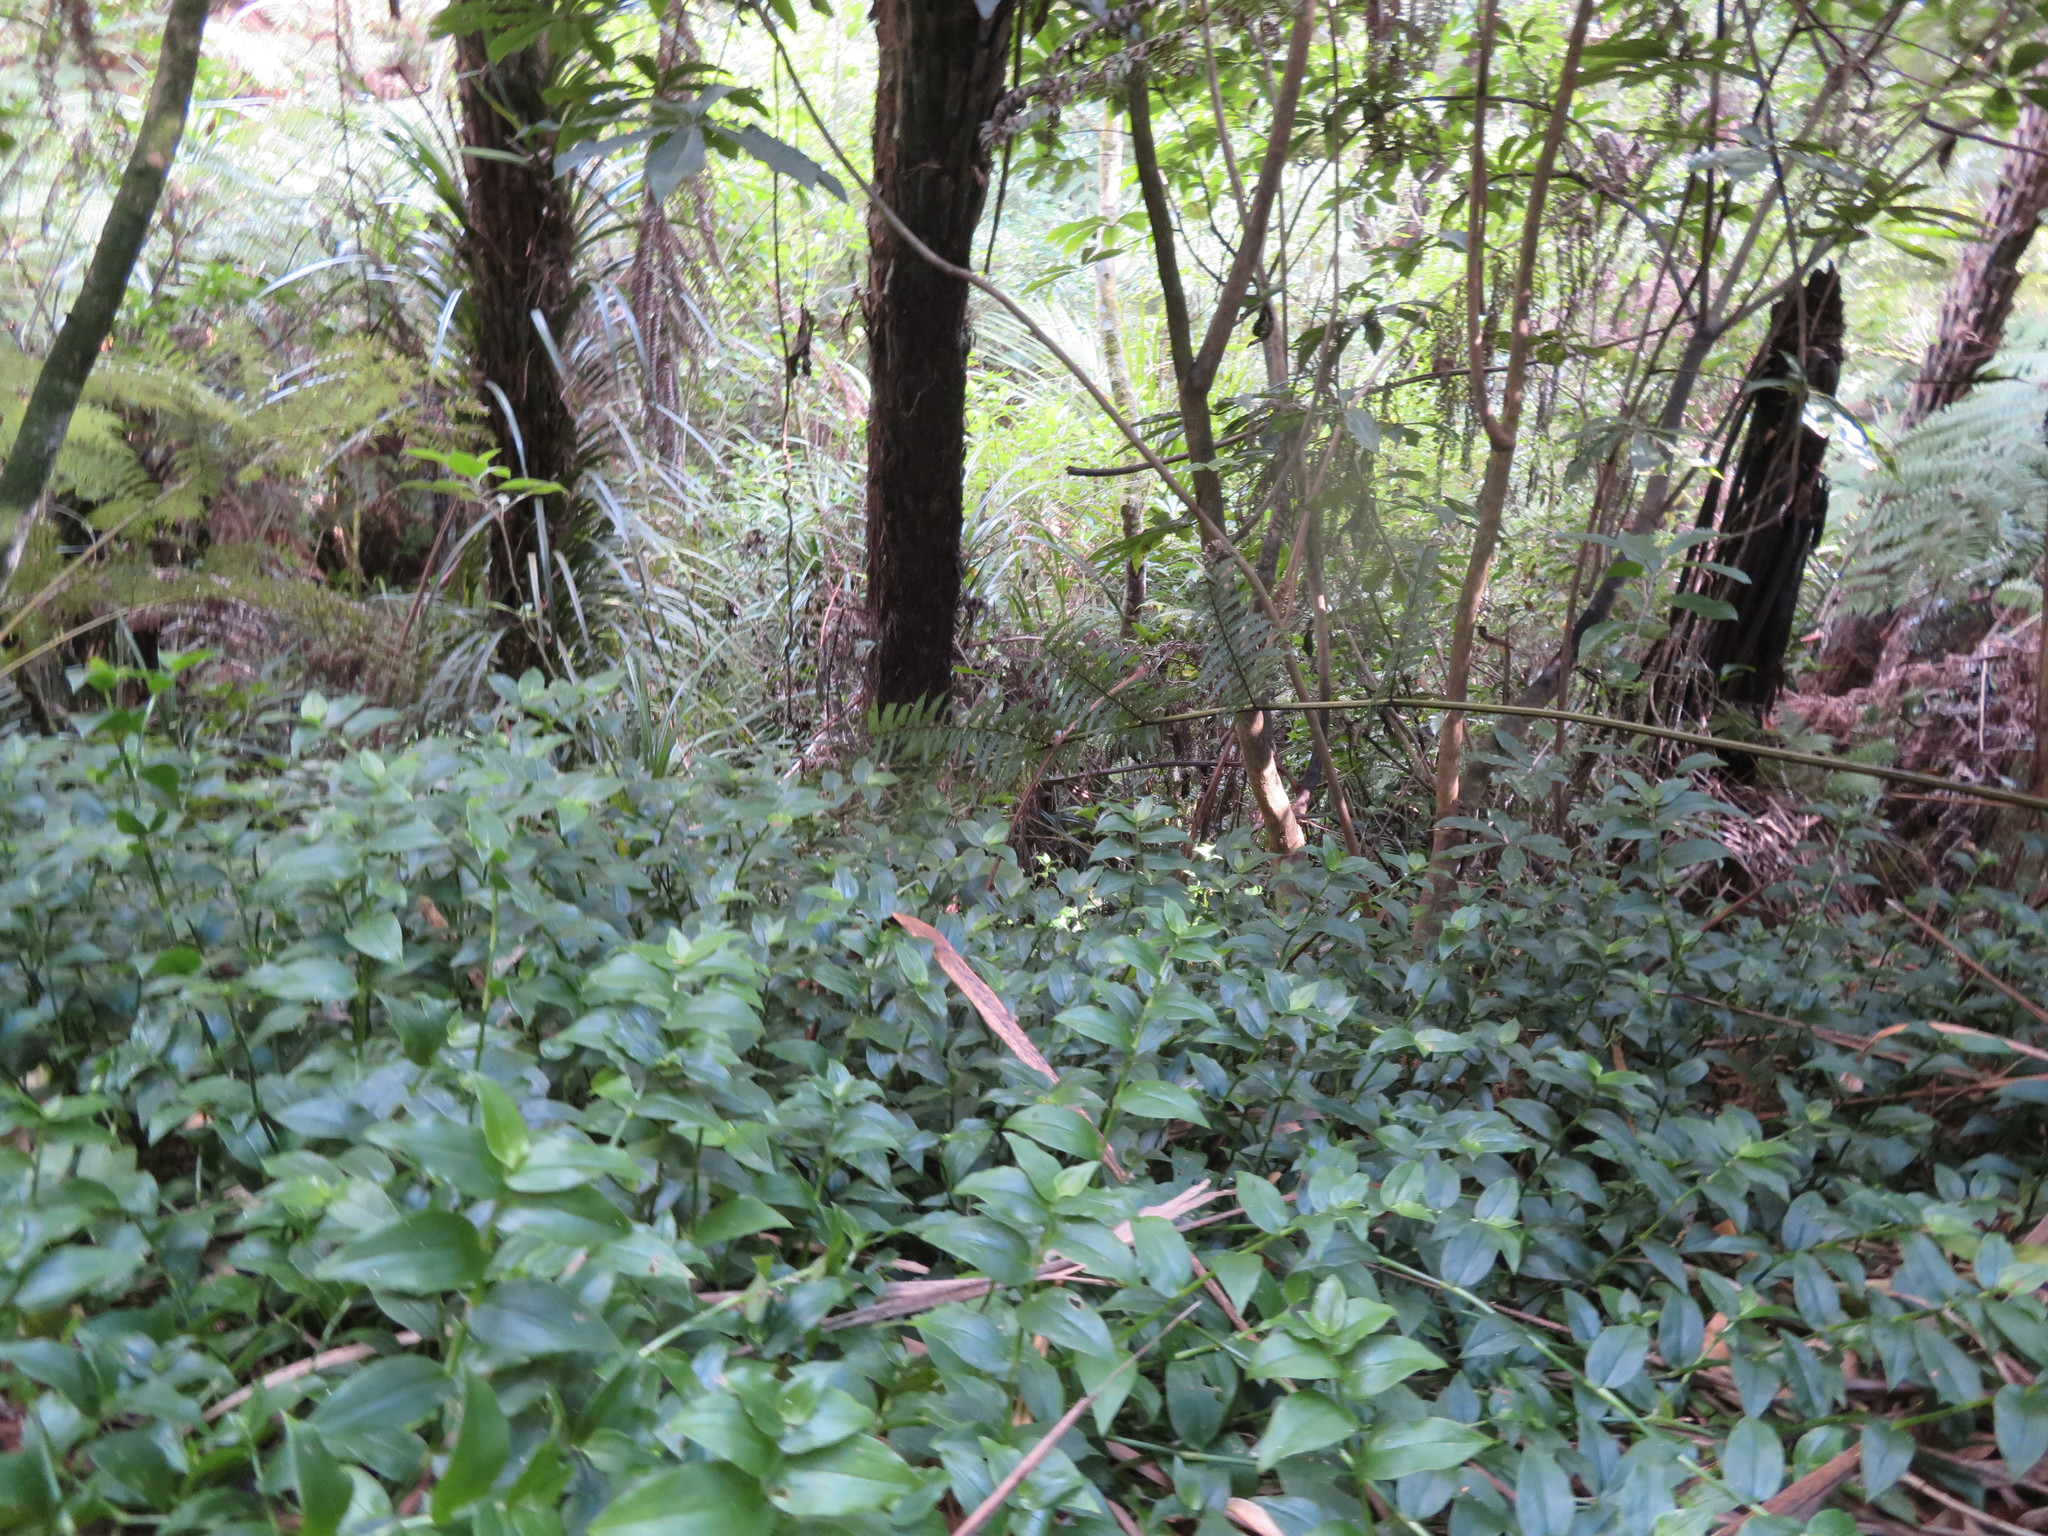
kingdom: Plantae
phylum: Tracheophyta
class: Liliopsida
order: Pandanales
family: Pandanaceae
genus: Freycinetia
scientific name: Freycinetia banksii
